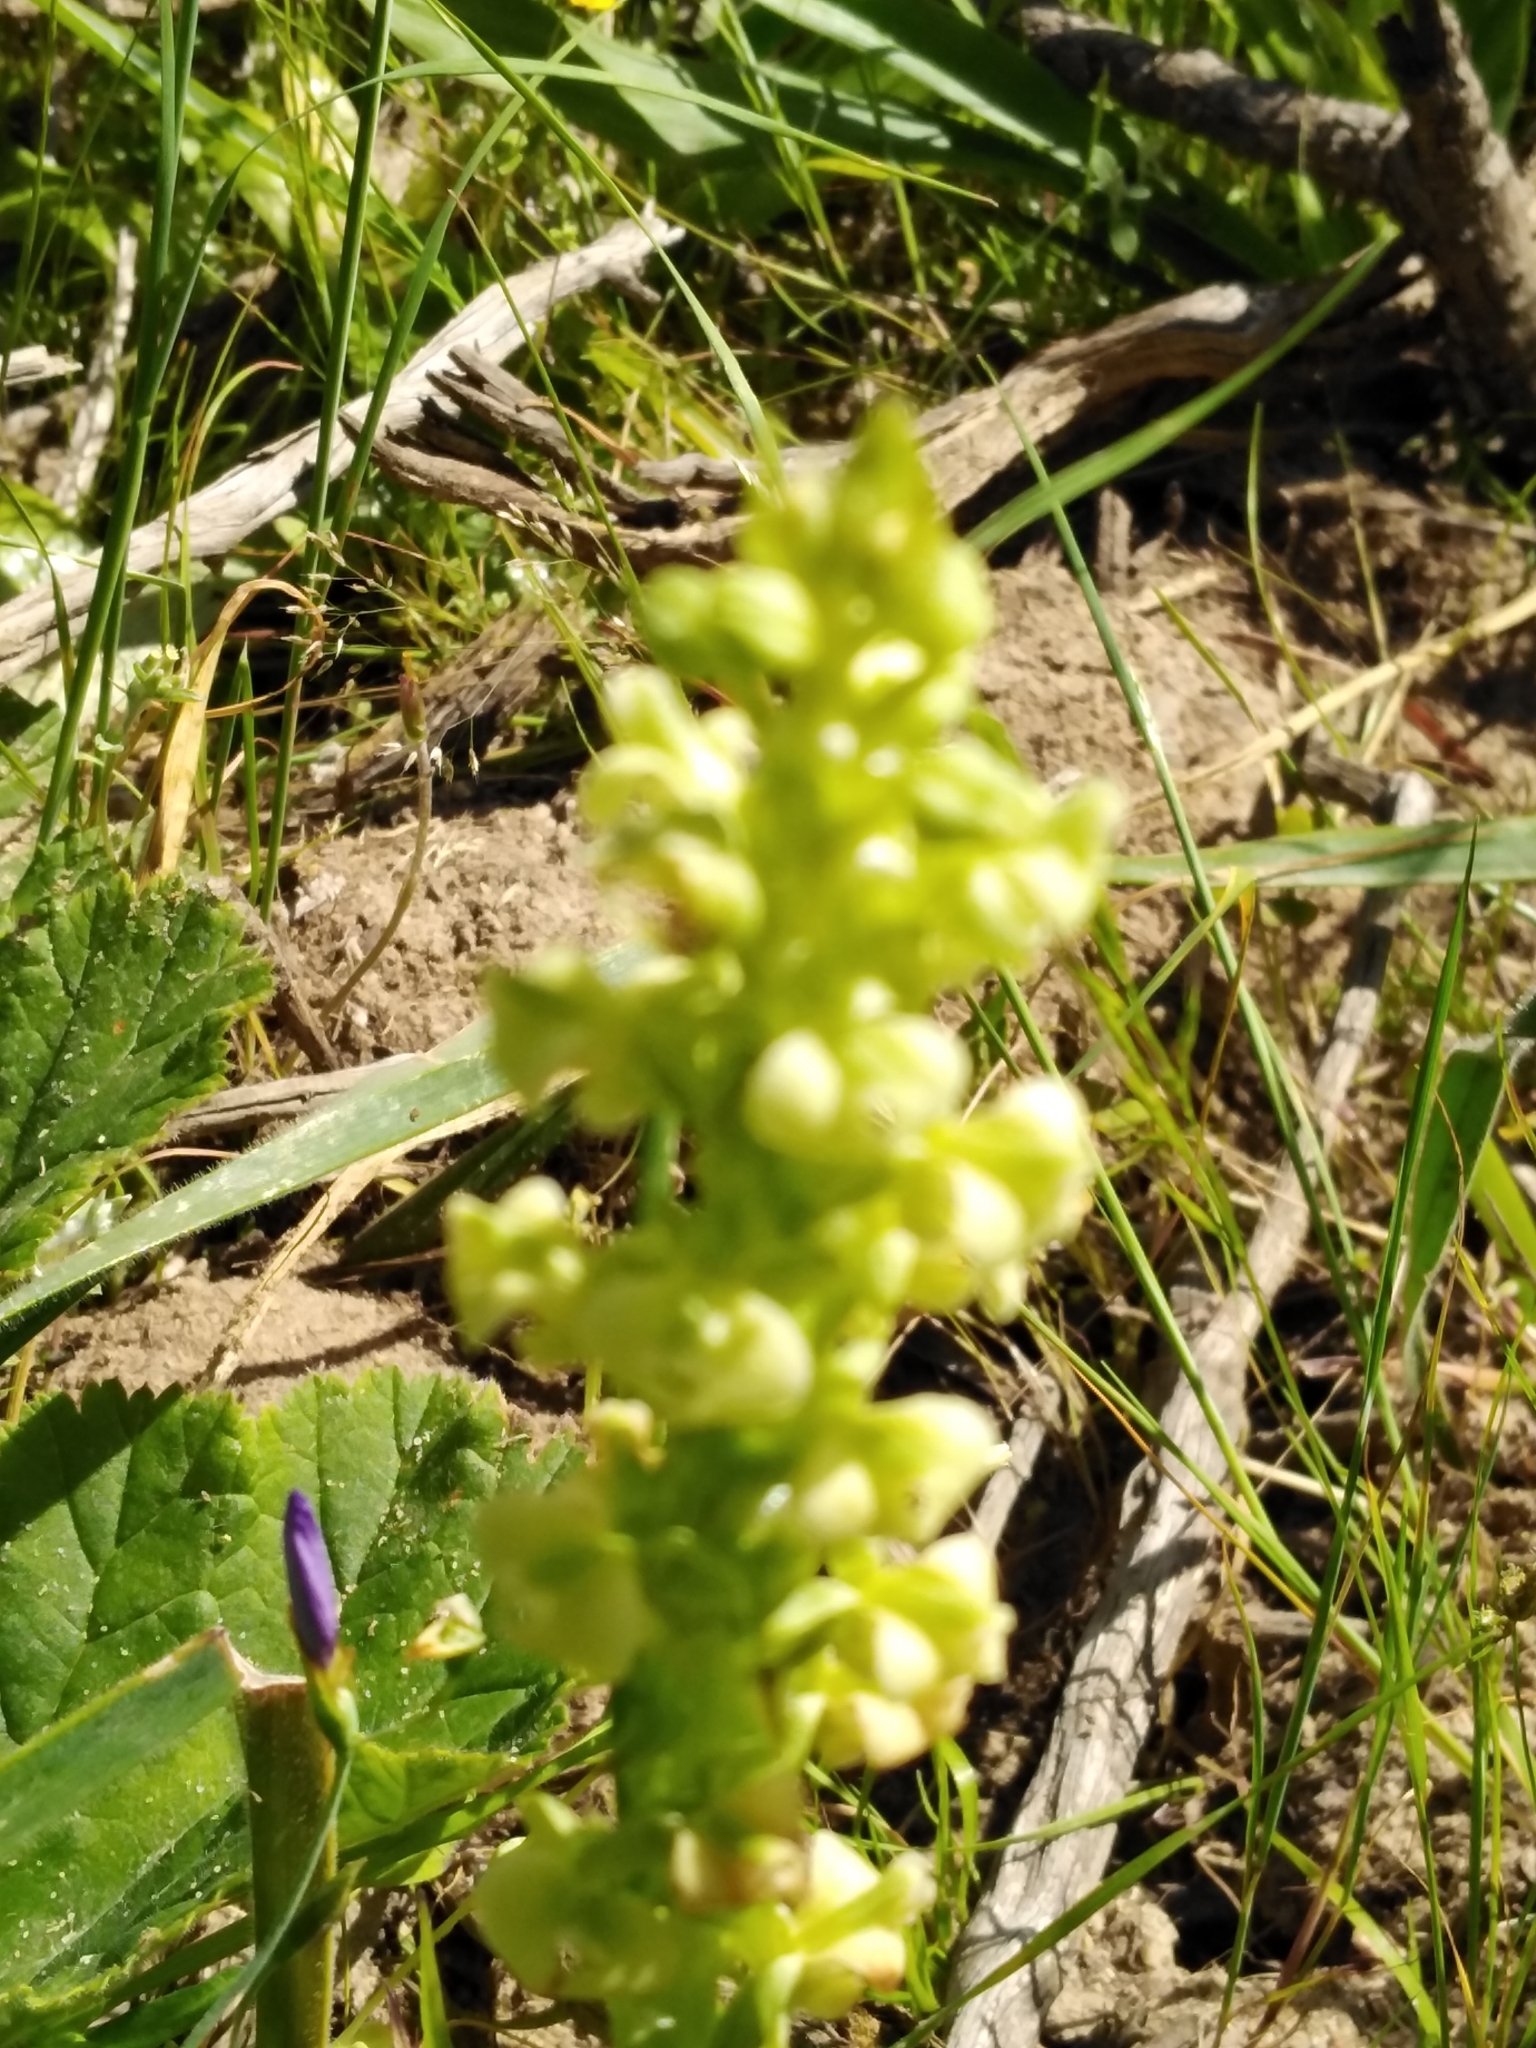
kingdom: Plantae
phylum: Tracheophyta
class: Liliopsida
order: Asparagales
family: Orchidaceae
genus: Pterygodium
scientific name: Pterygodium volucris
